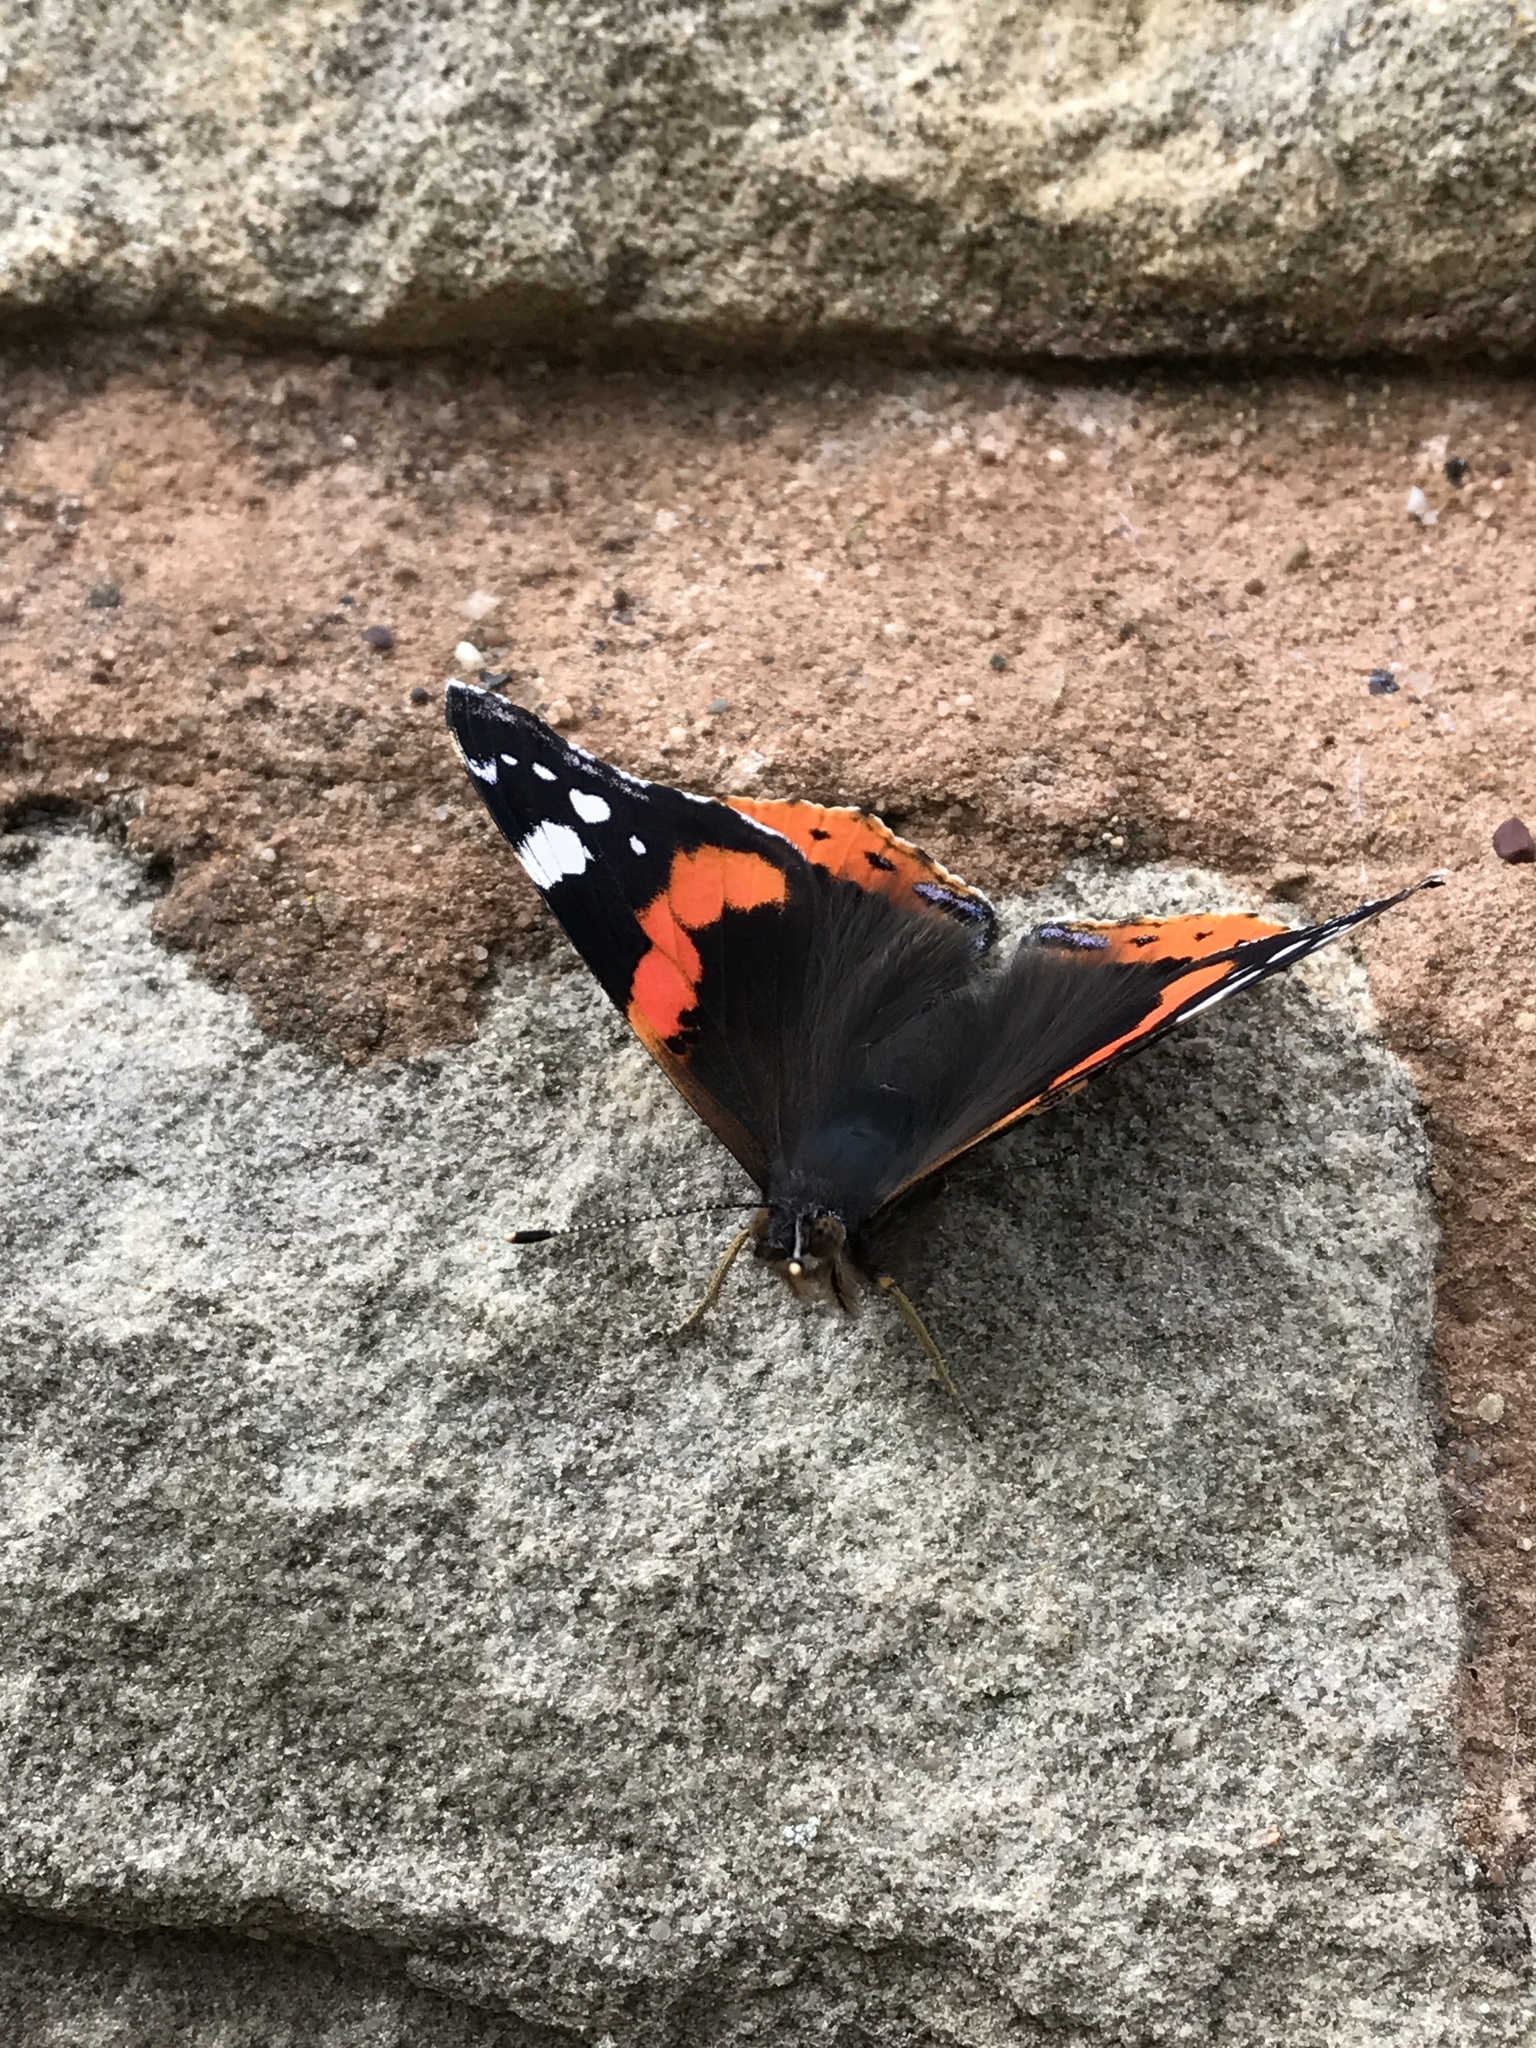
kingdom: Animalia
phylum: Arthropoda
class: Insecta
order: Lepidoptera
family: Nymphalidae
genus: Vanessa
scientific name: Vanessa atalanta
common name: Red admiral
